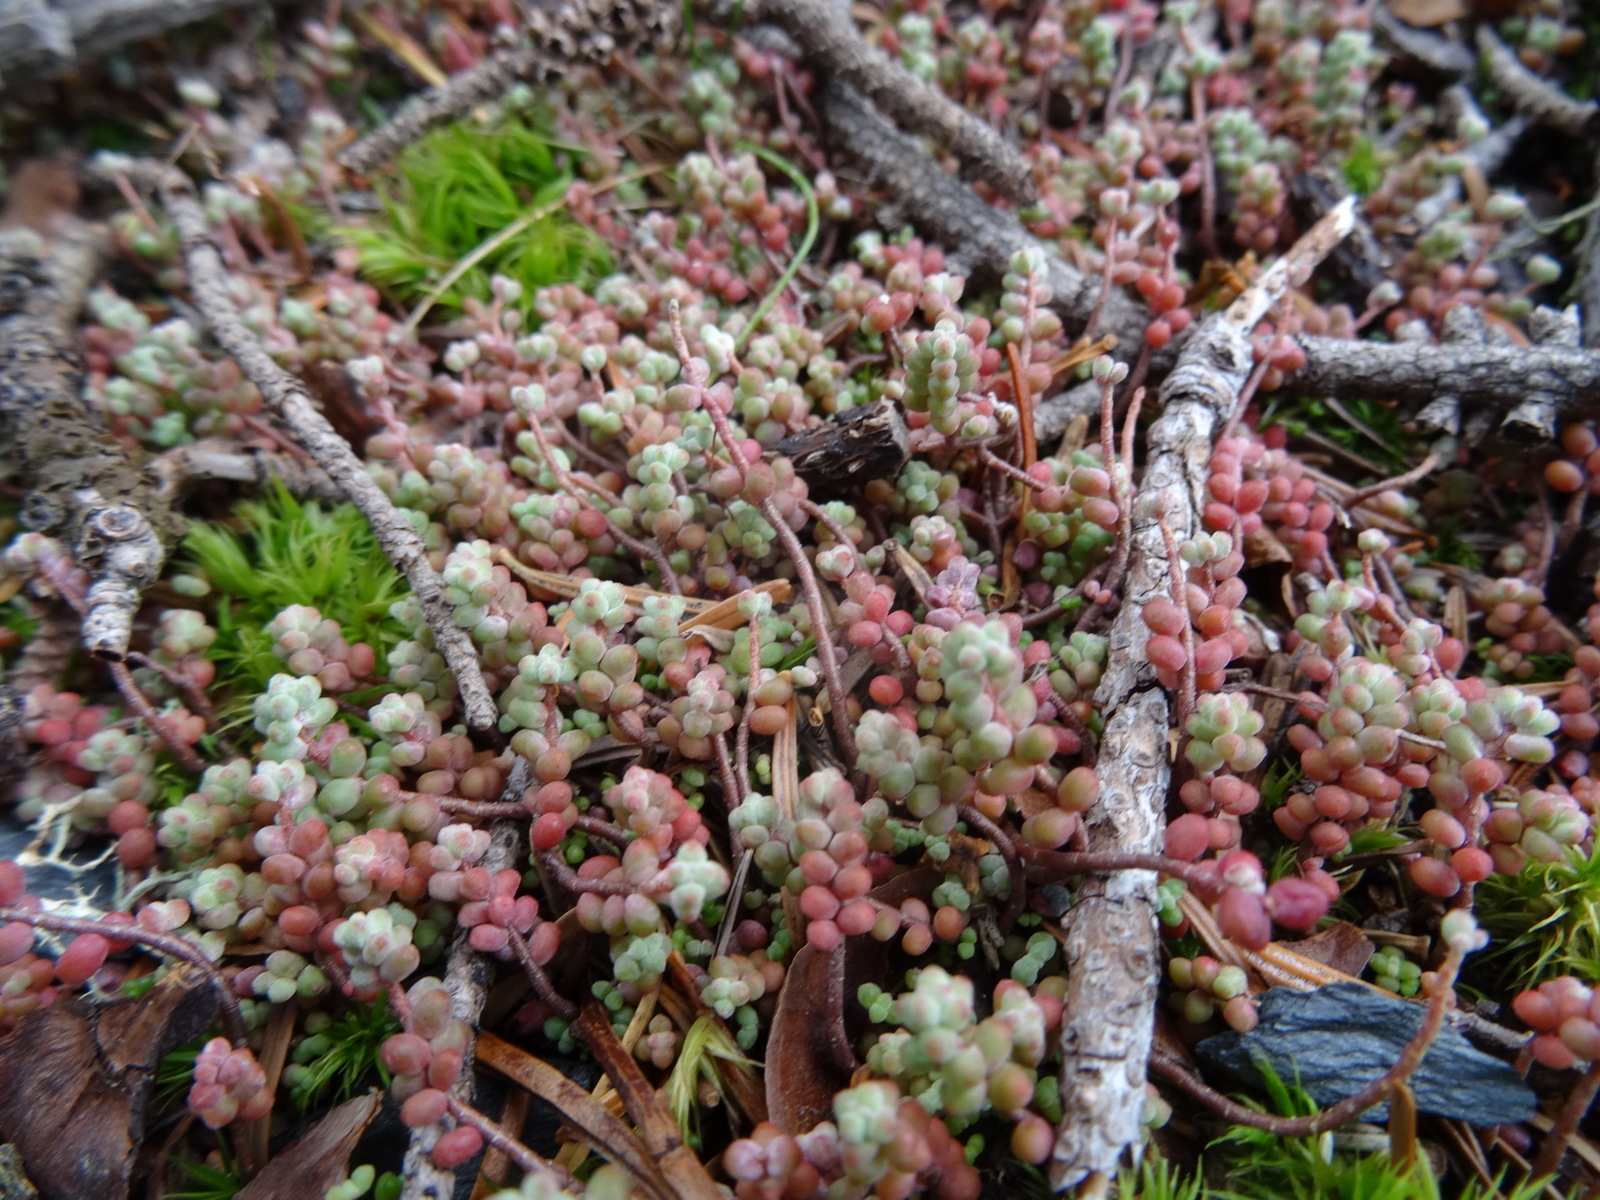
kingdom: Plantae
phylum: Tracheophyta
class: Magnoliopsida
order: Saxifragales
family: Crassulaceae
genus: Sedum
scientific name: Sedum brevifolium
